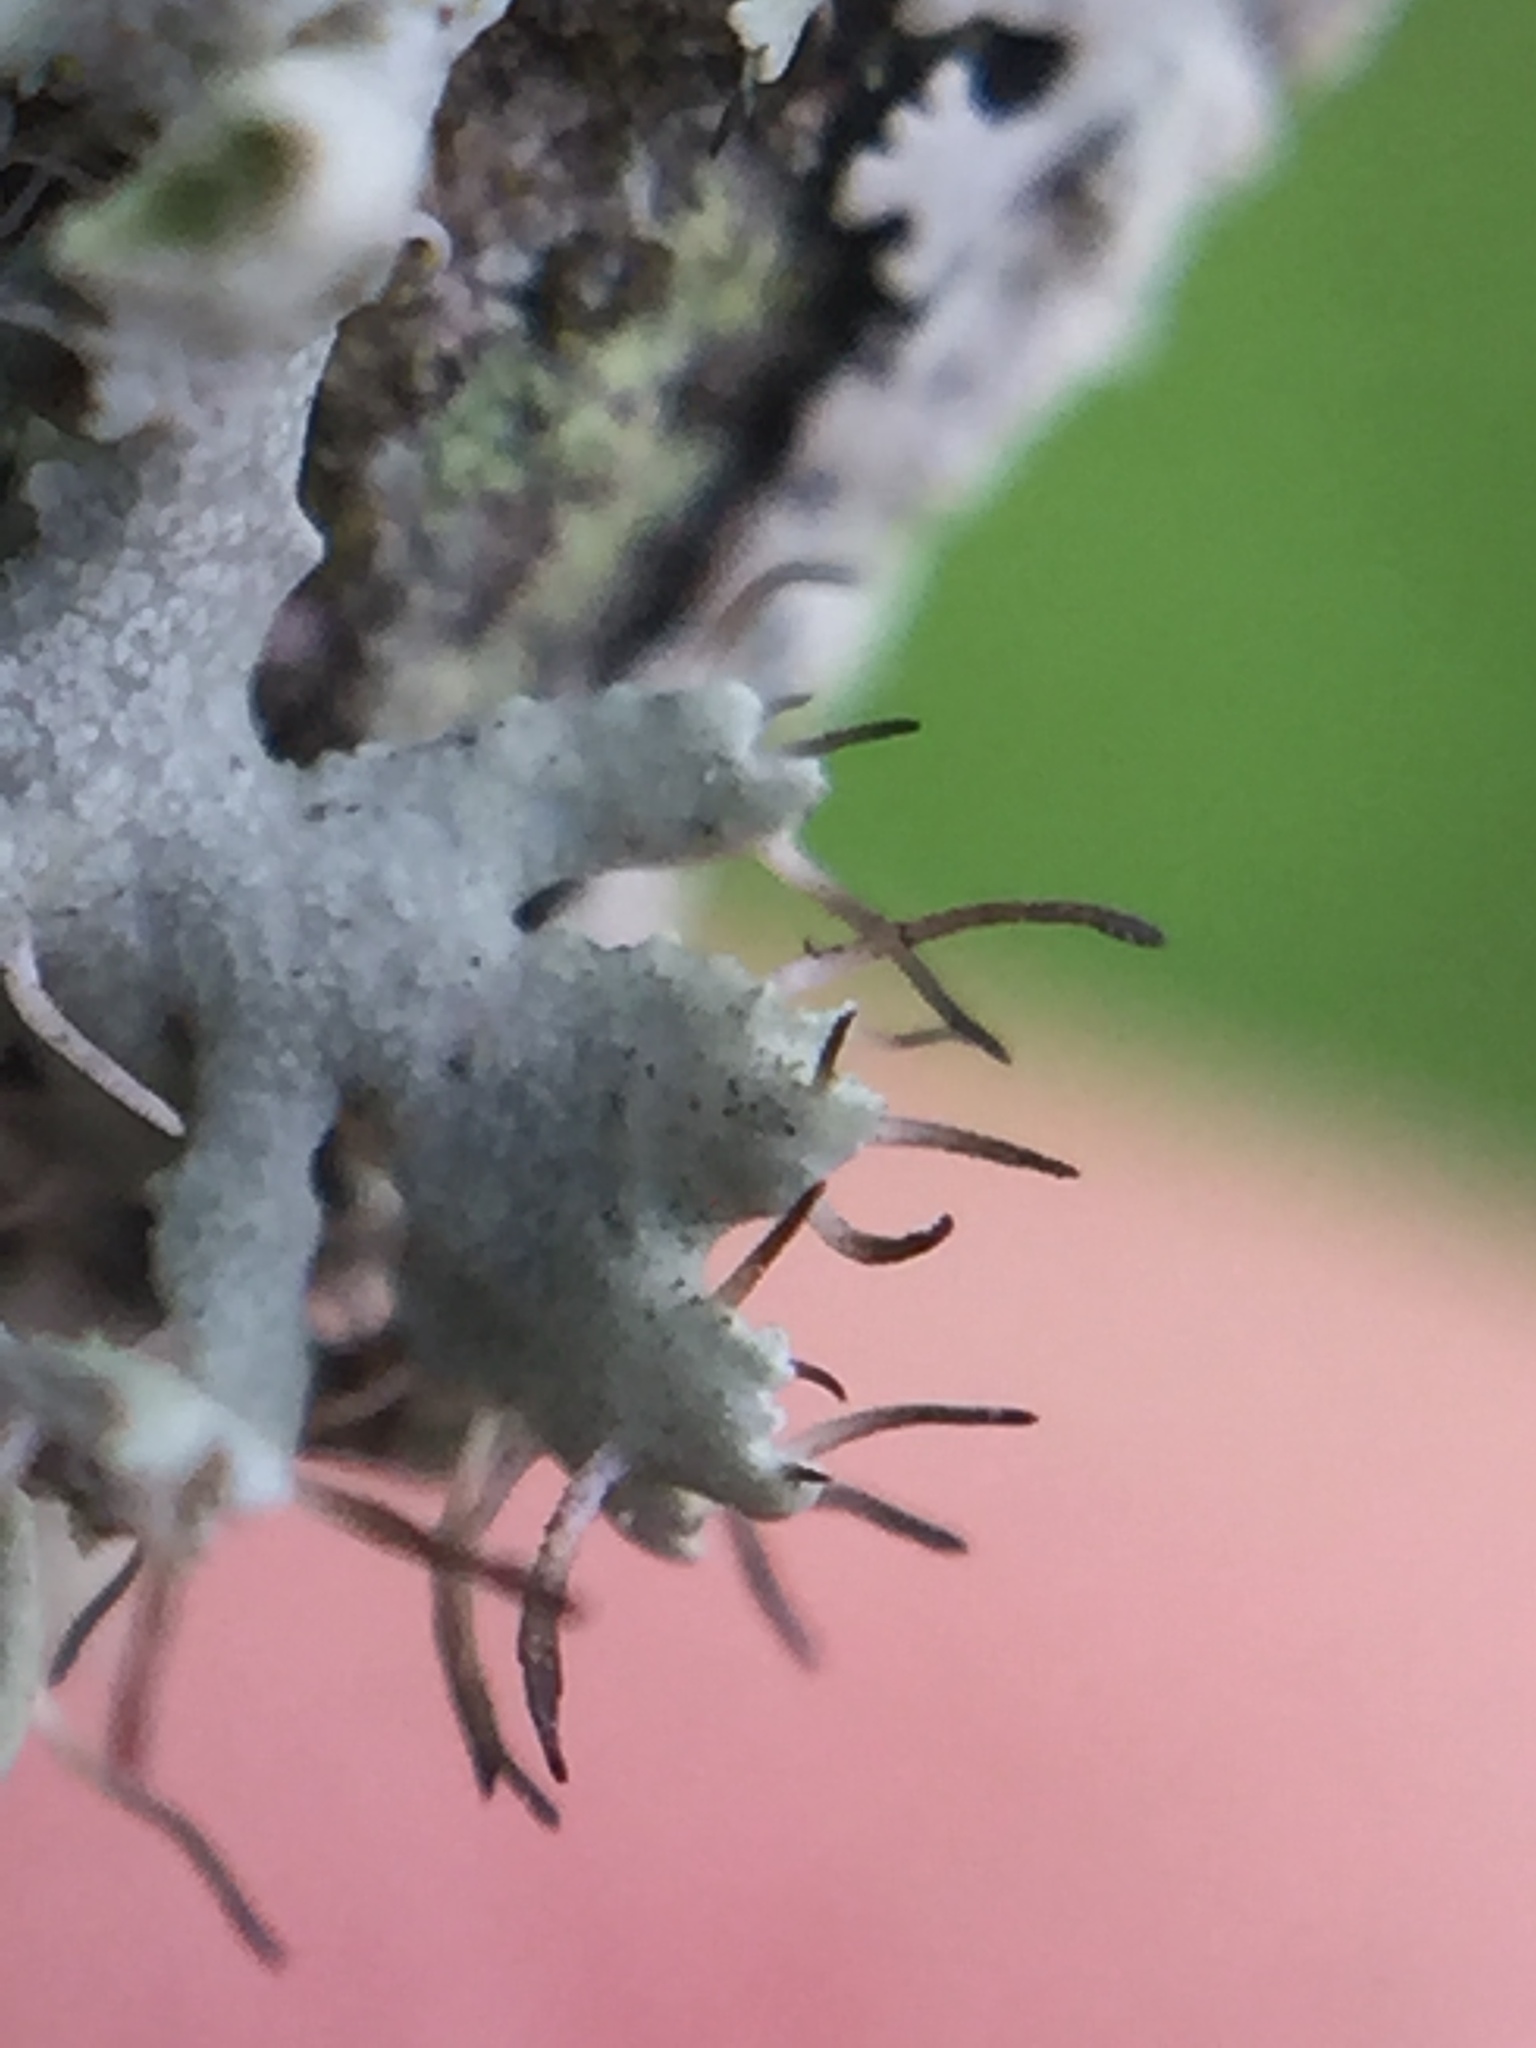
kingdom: Fungi
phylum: Ascomycota
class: Lecanoromycetes
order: Caliciales
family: Physciaceae
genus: Physcia
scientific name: Physcia adscendens
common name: Hooded rosette lichen
